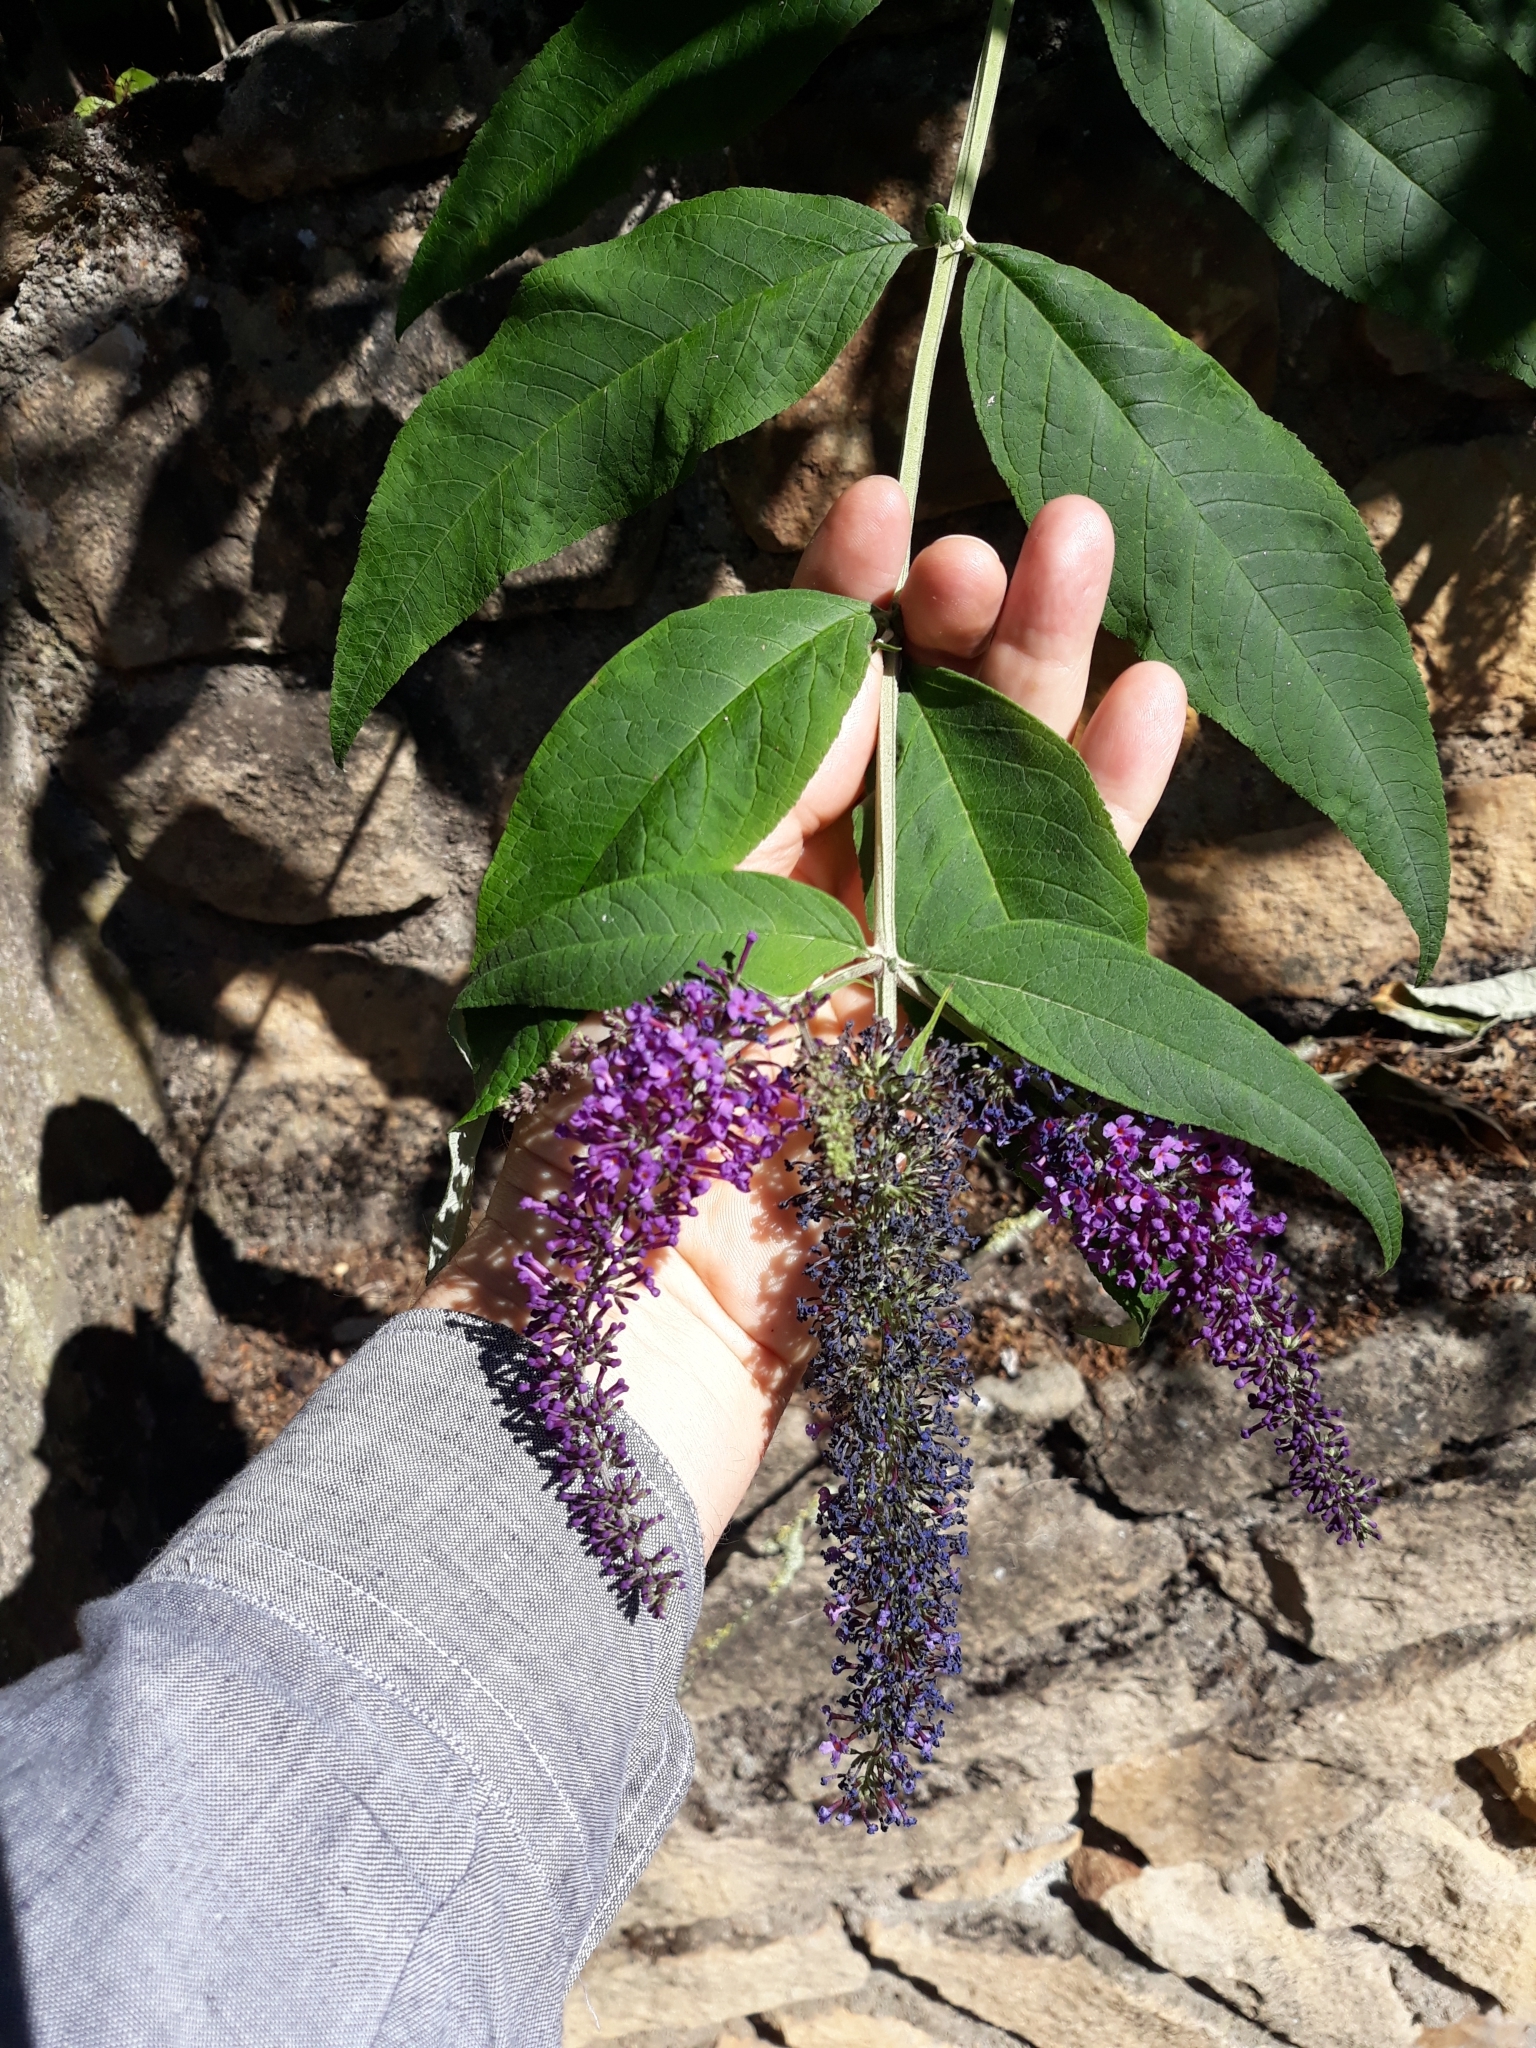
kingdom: Plantae
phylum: Tracheophyta
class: Magnoliopsida
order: Lamiales
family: Scrophulariaceae
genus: Buddleja
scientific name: Buddleja davidii
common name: Butterfly-bush
